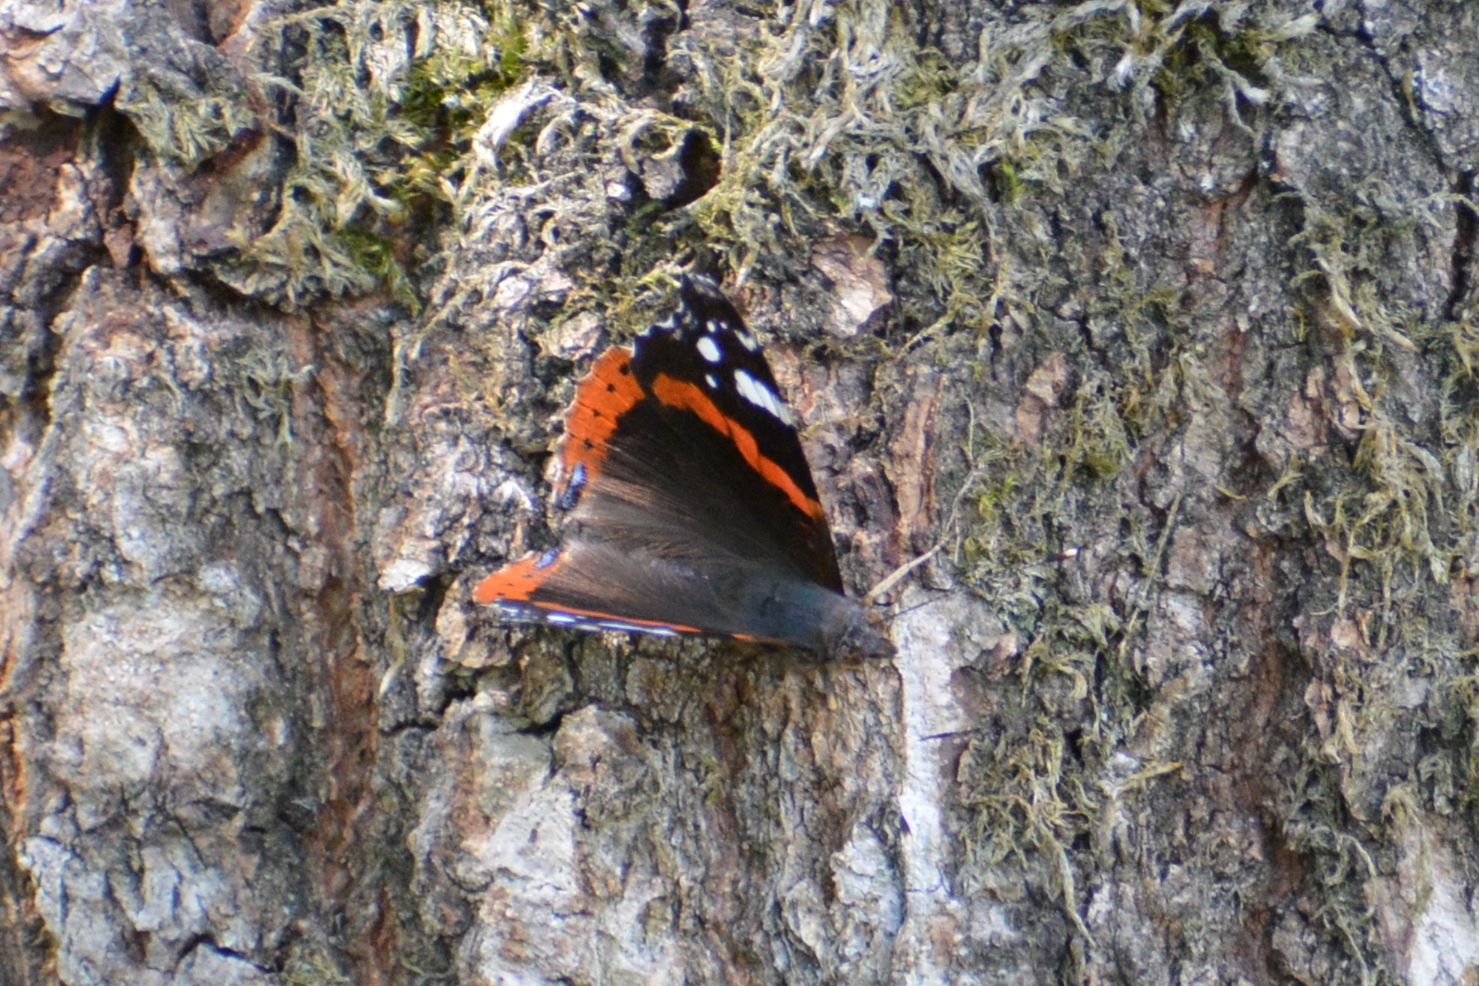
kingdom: Animalia
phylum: Arthropoda
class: Insecta
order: Lepidoptera
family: Nymphalidae
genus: Vanessa
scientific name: Vanessa atalanta
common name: Red admiral
